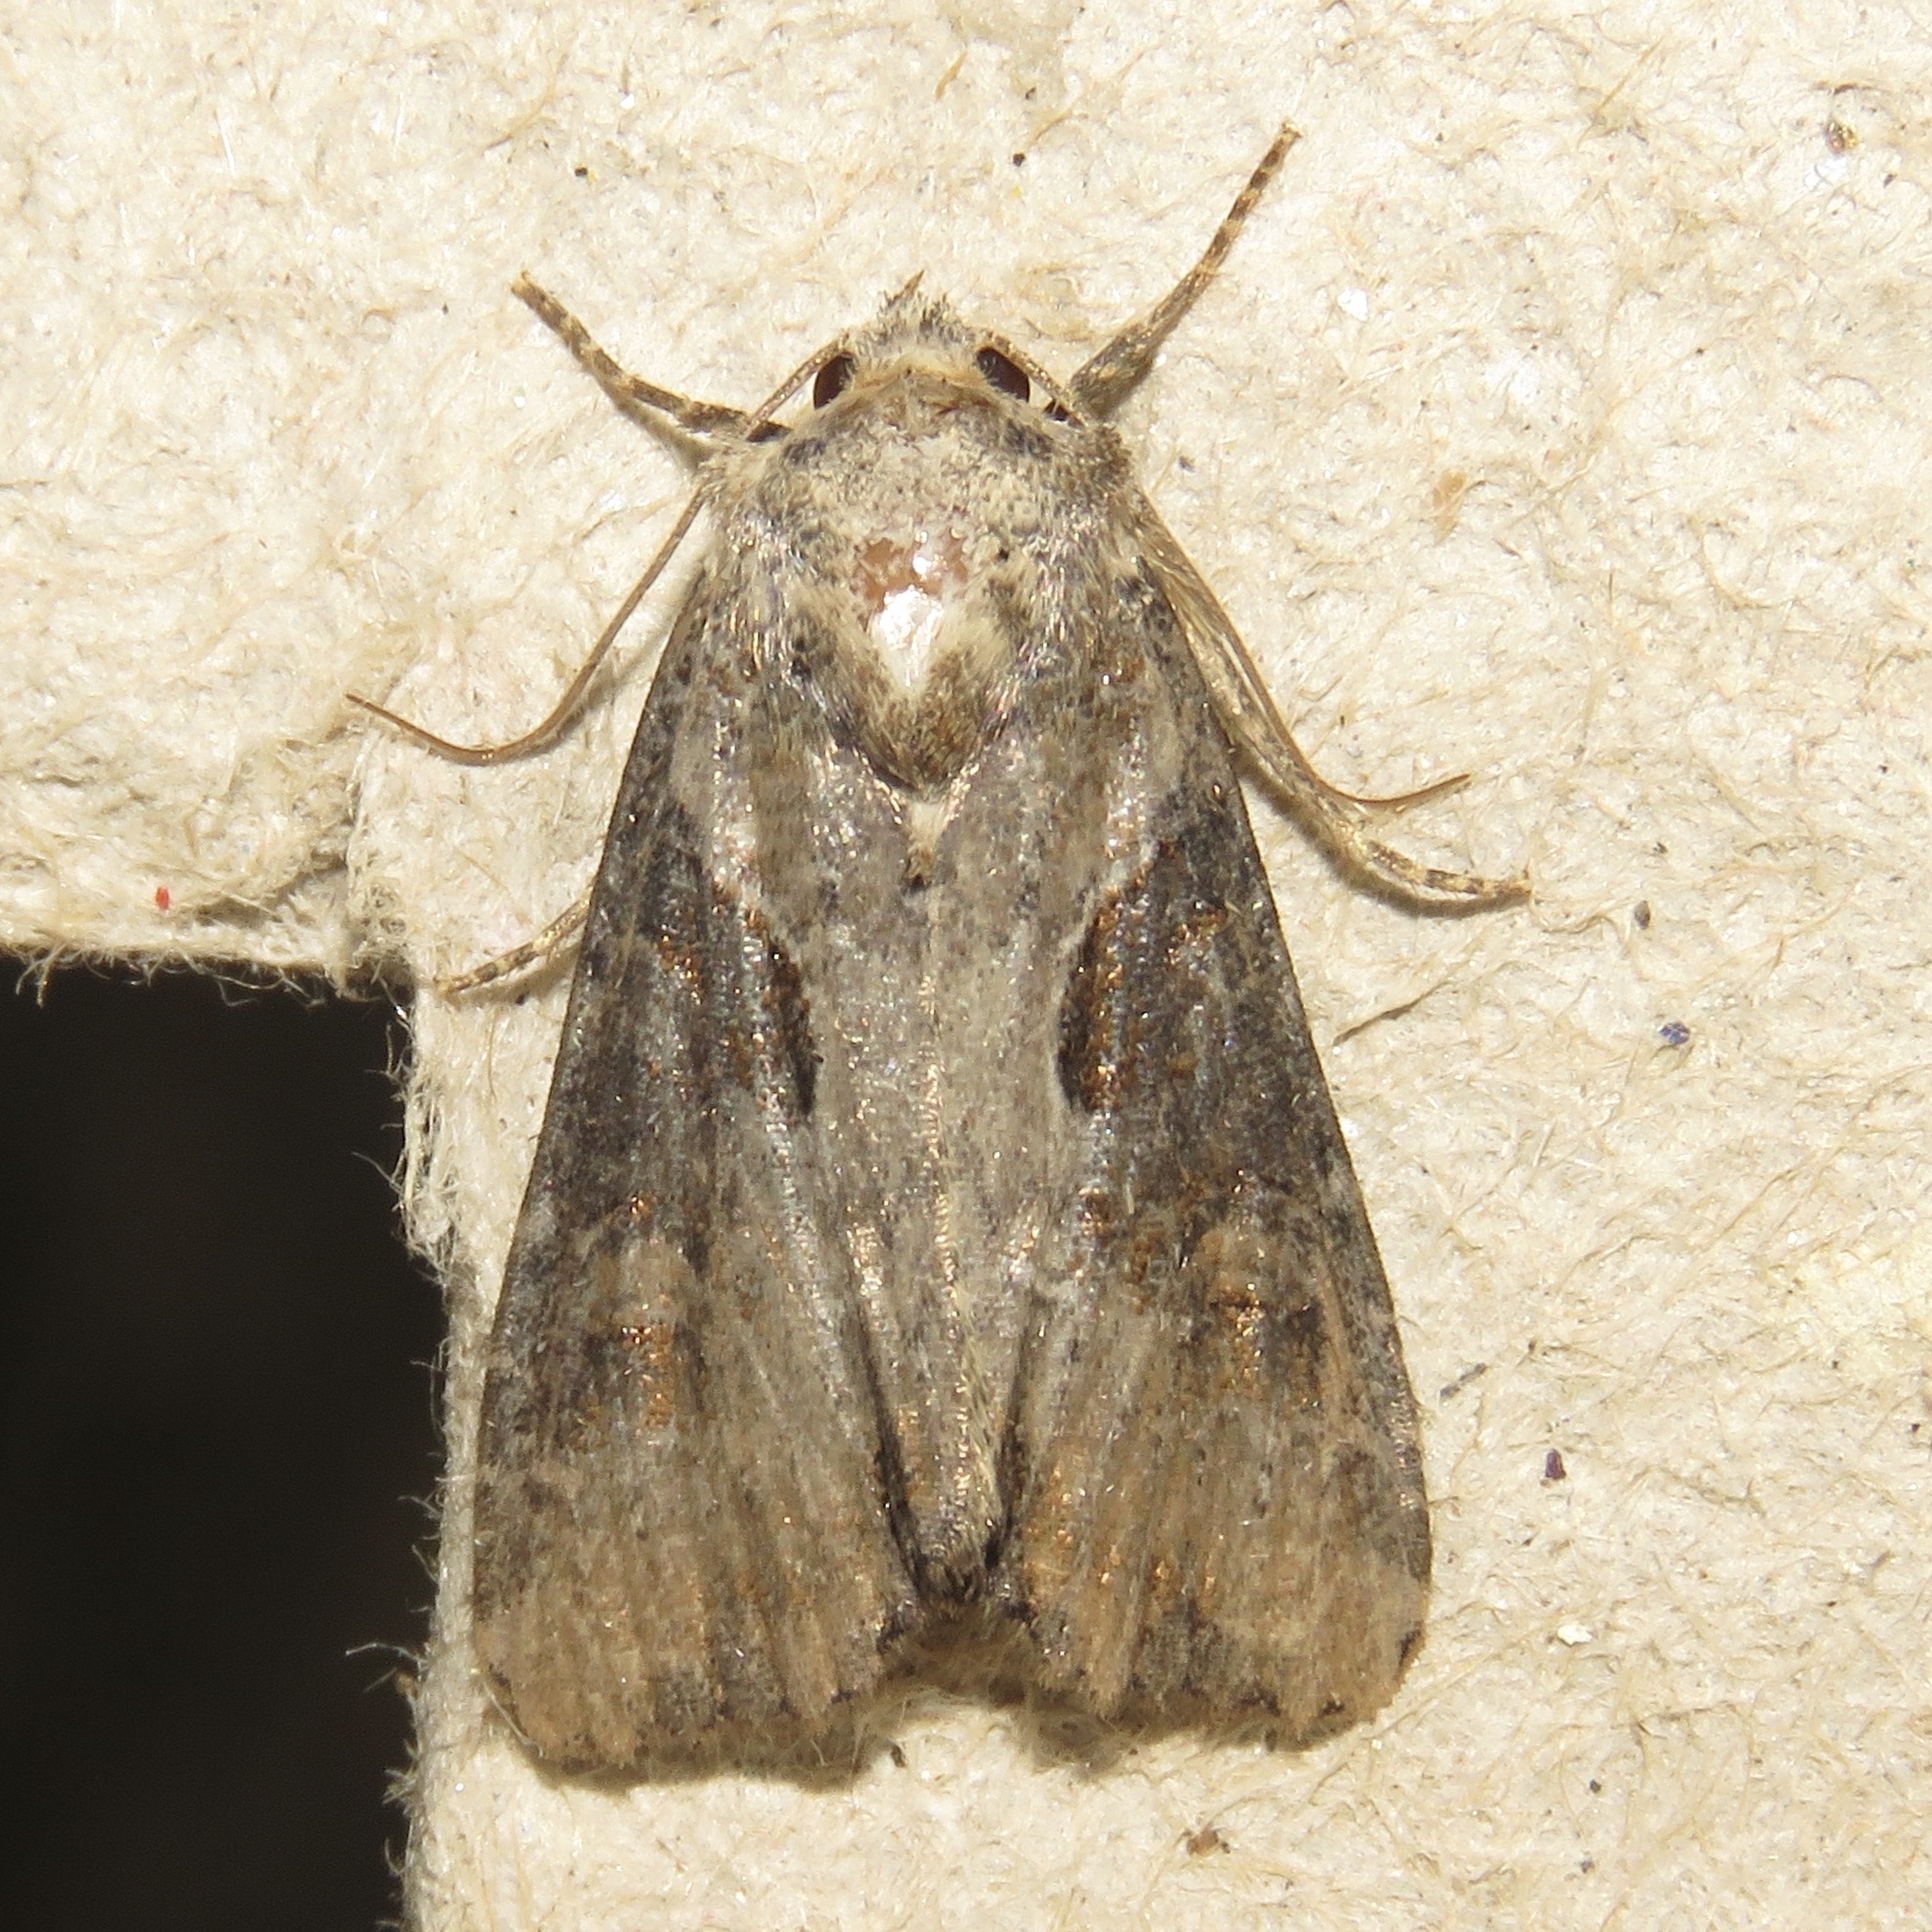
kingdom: Animalia
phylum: Arthropoda
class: Insecta
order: Lepidoptera
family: Noctuidae
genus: Lateroligia
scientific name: Lateroligia ophiogramma
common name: Double lobed
